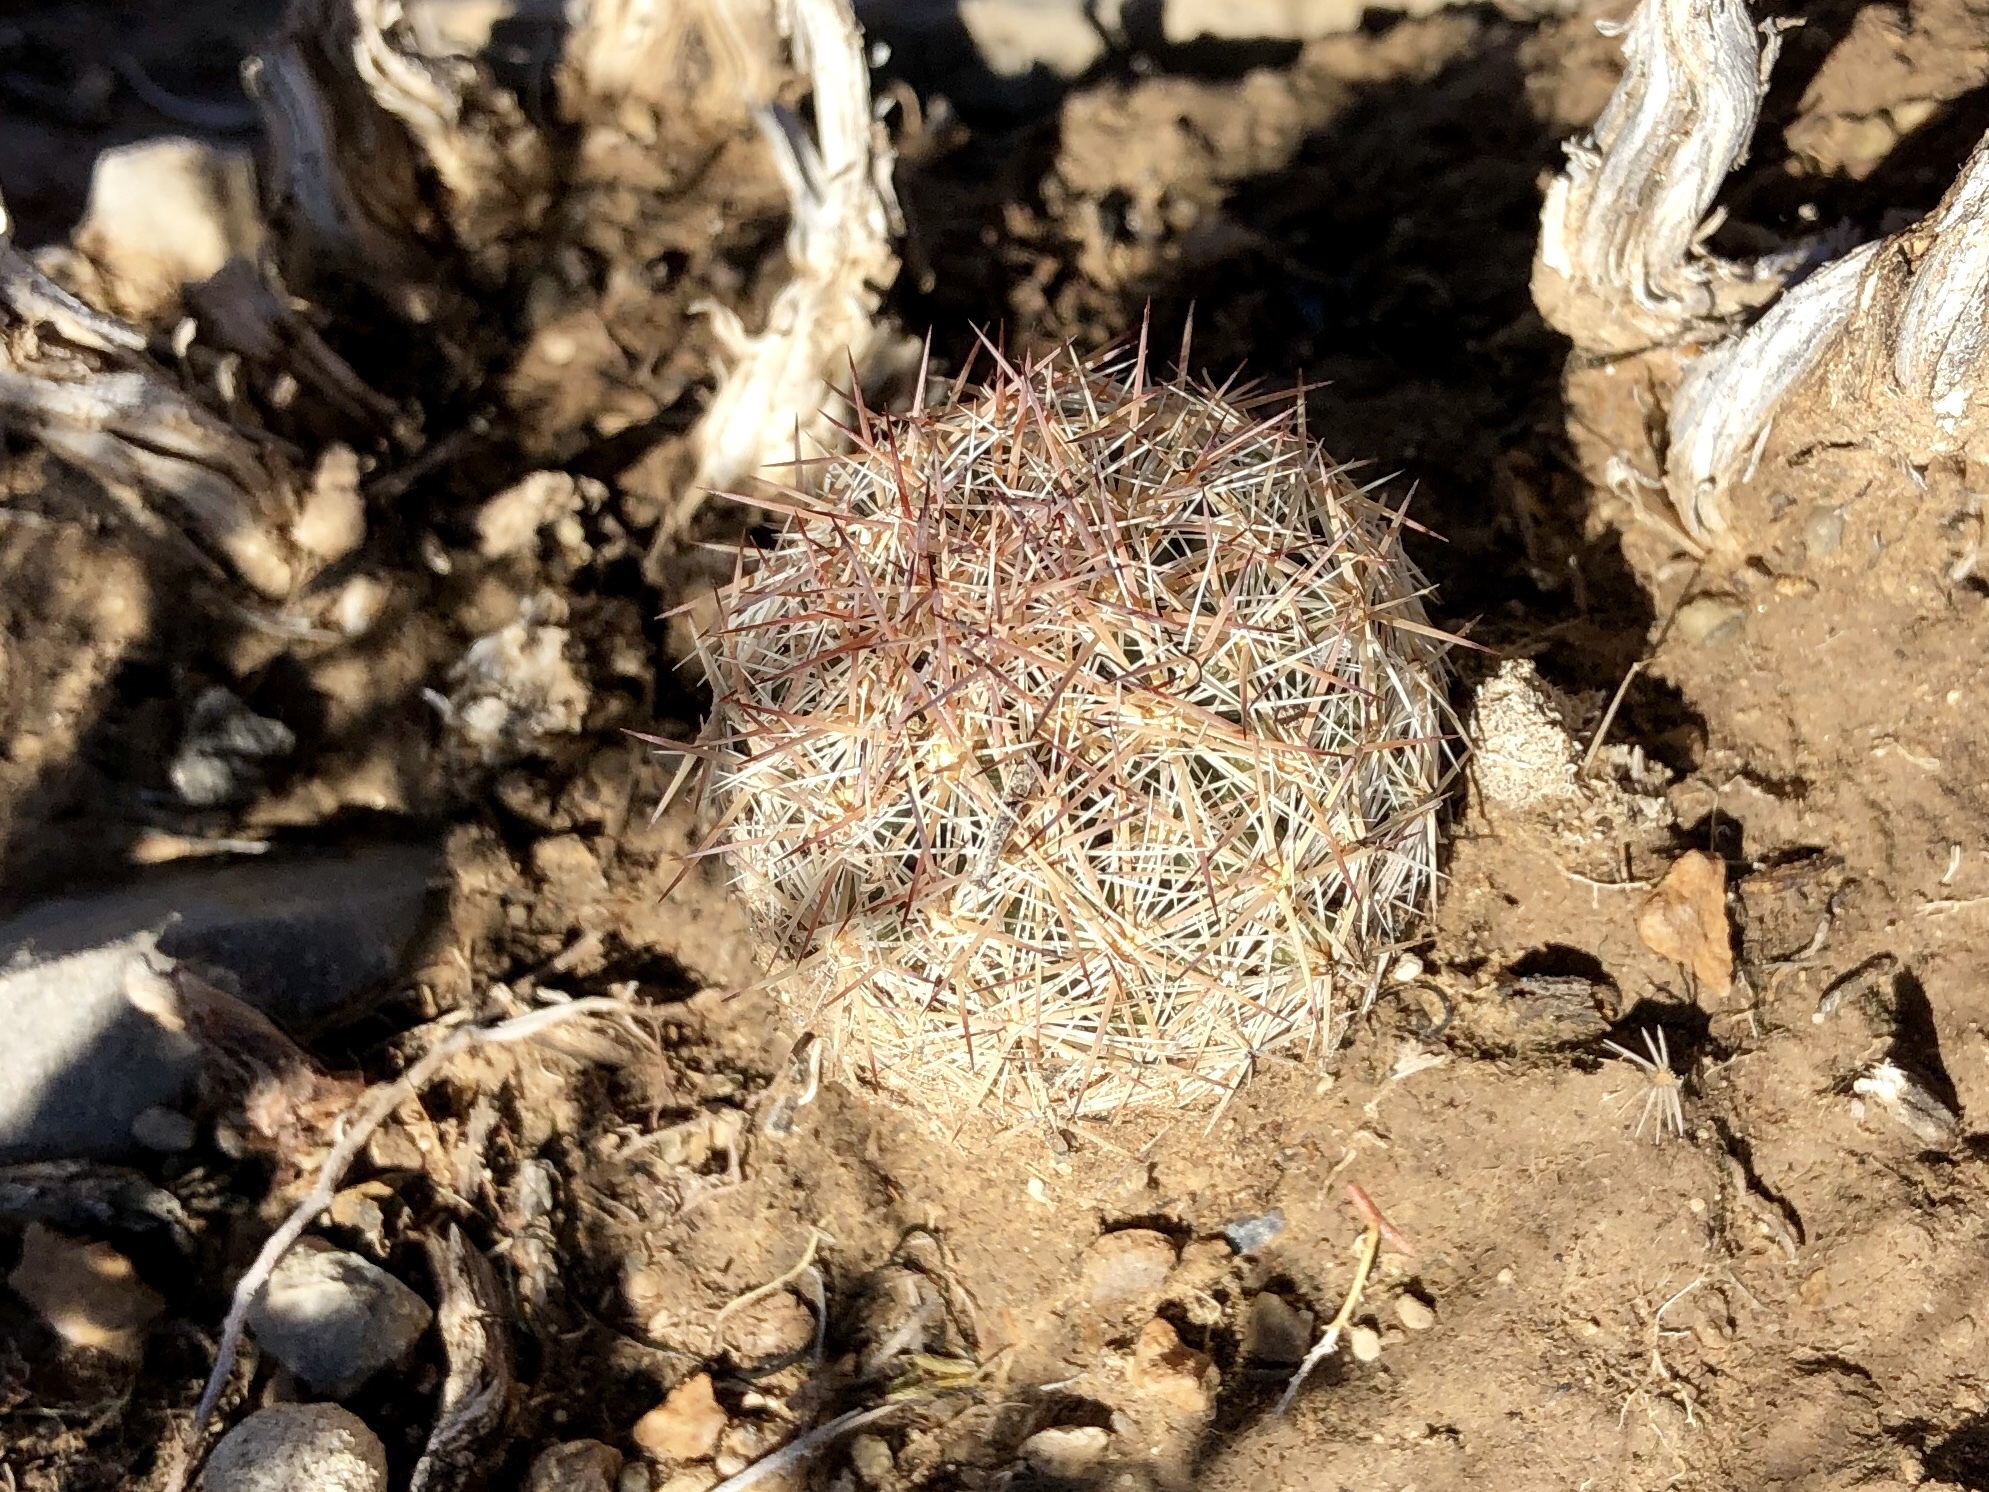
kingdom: Plantae
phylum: Tracheophyta
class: Magnoliopsida
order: Caryophyllales
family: Cactaceae
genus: Pelecyphora
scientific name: Pelecyphora vivipara
